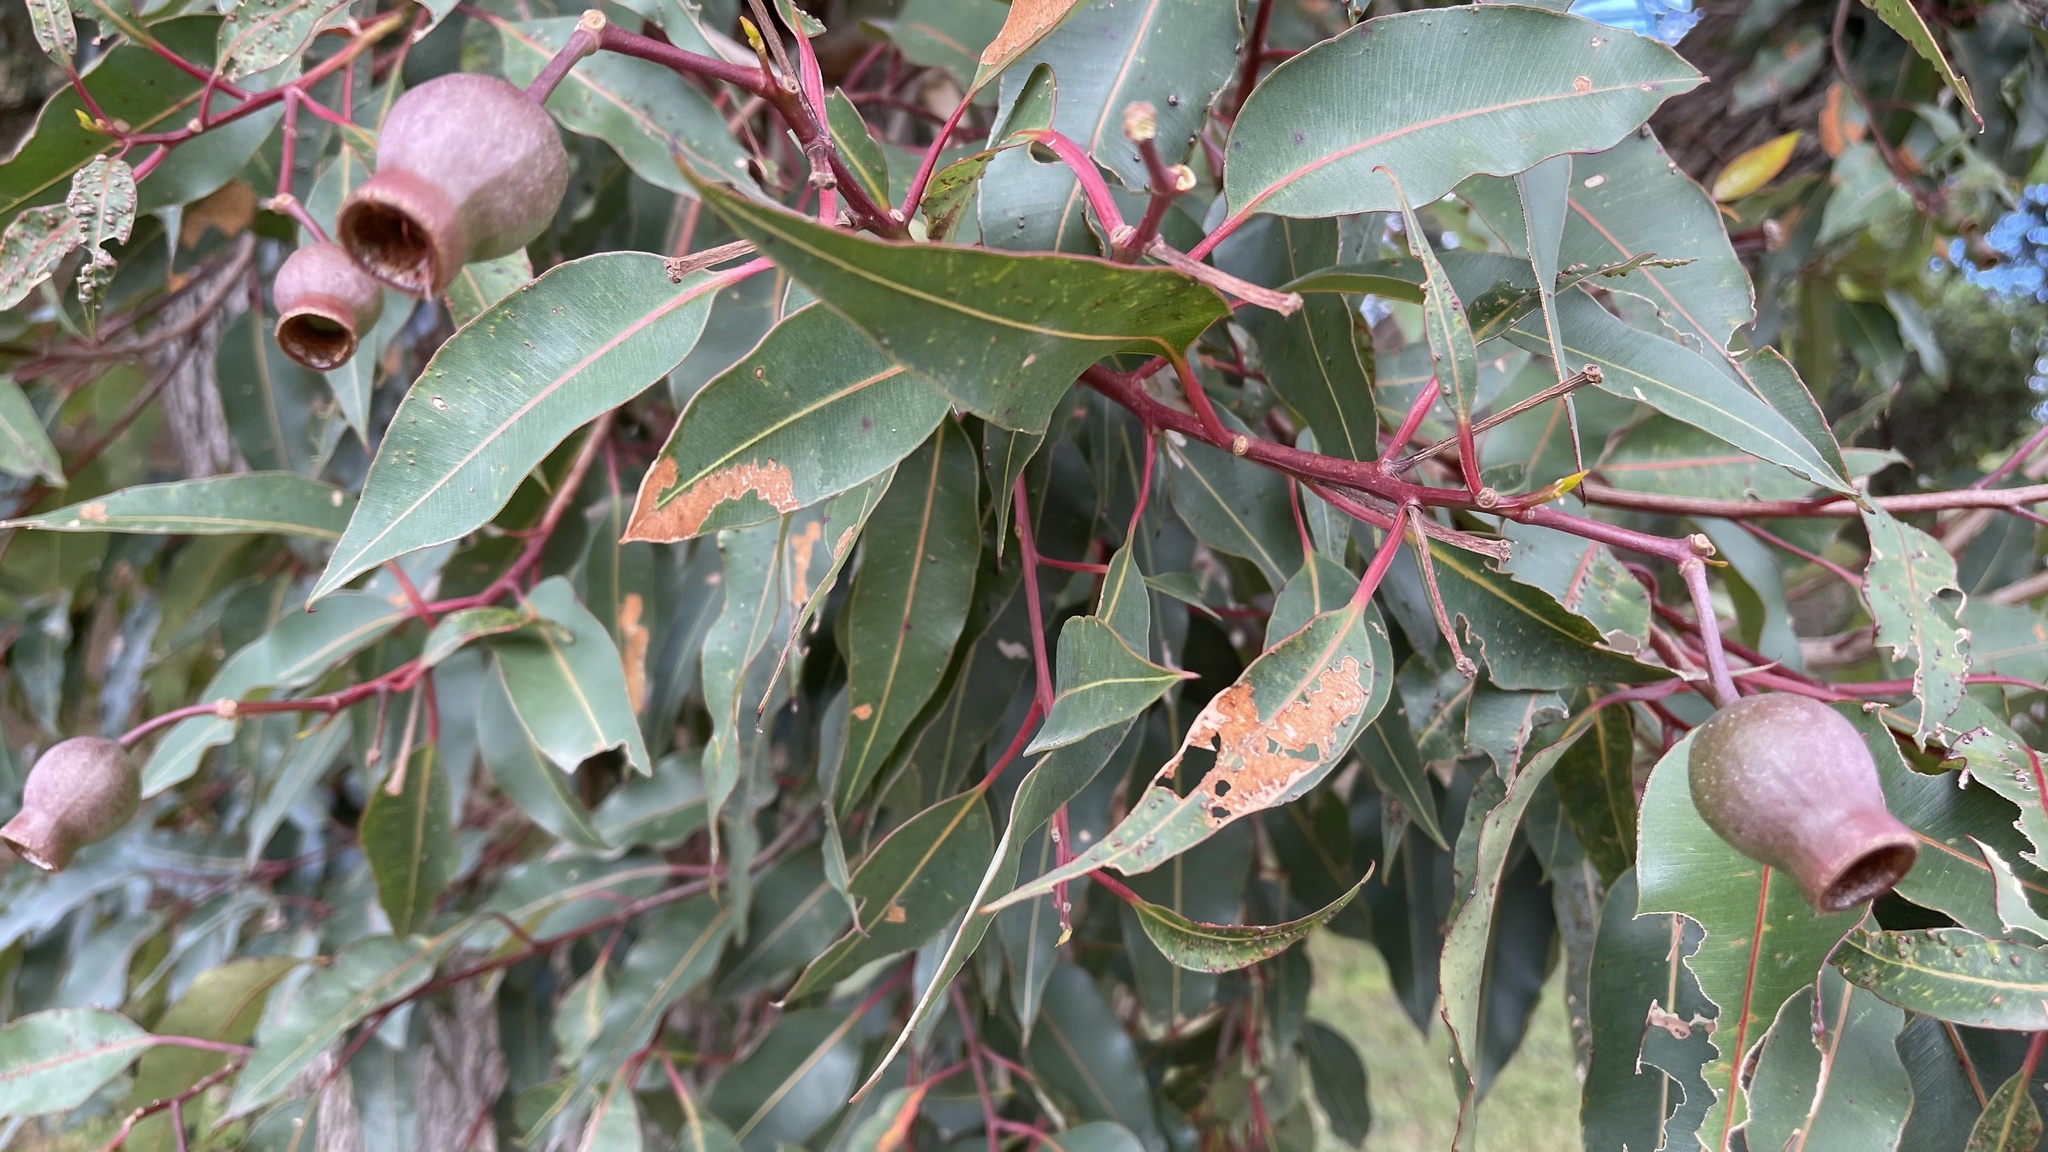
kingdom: Plantae
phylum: Tracheophyta
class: Magnoliopsida
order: Myrtales
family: Myrtaceae
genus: Corymbia
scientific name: Corymbia ficifolia
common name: Redflower gum
